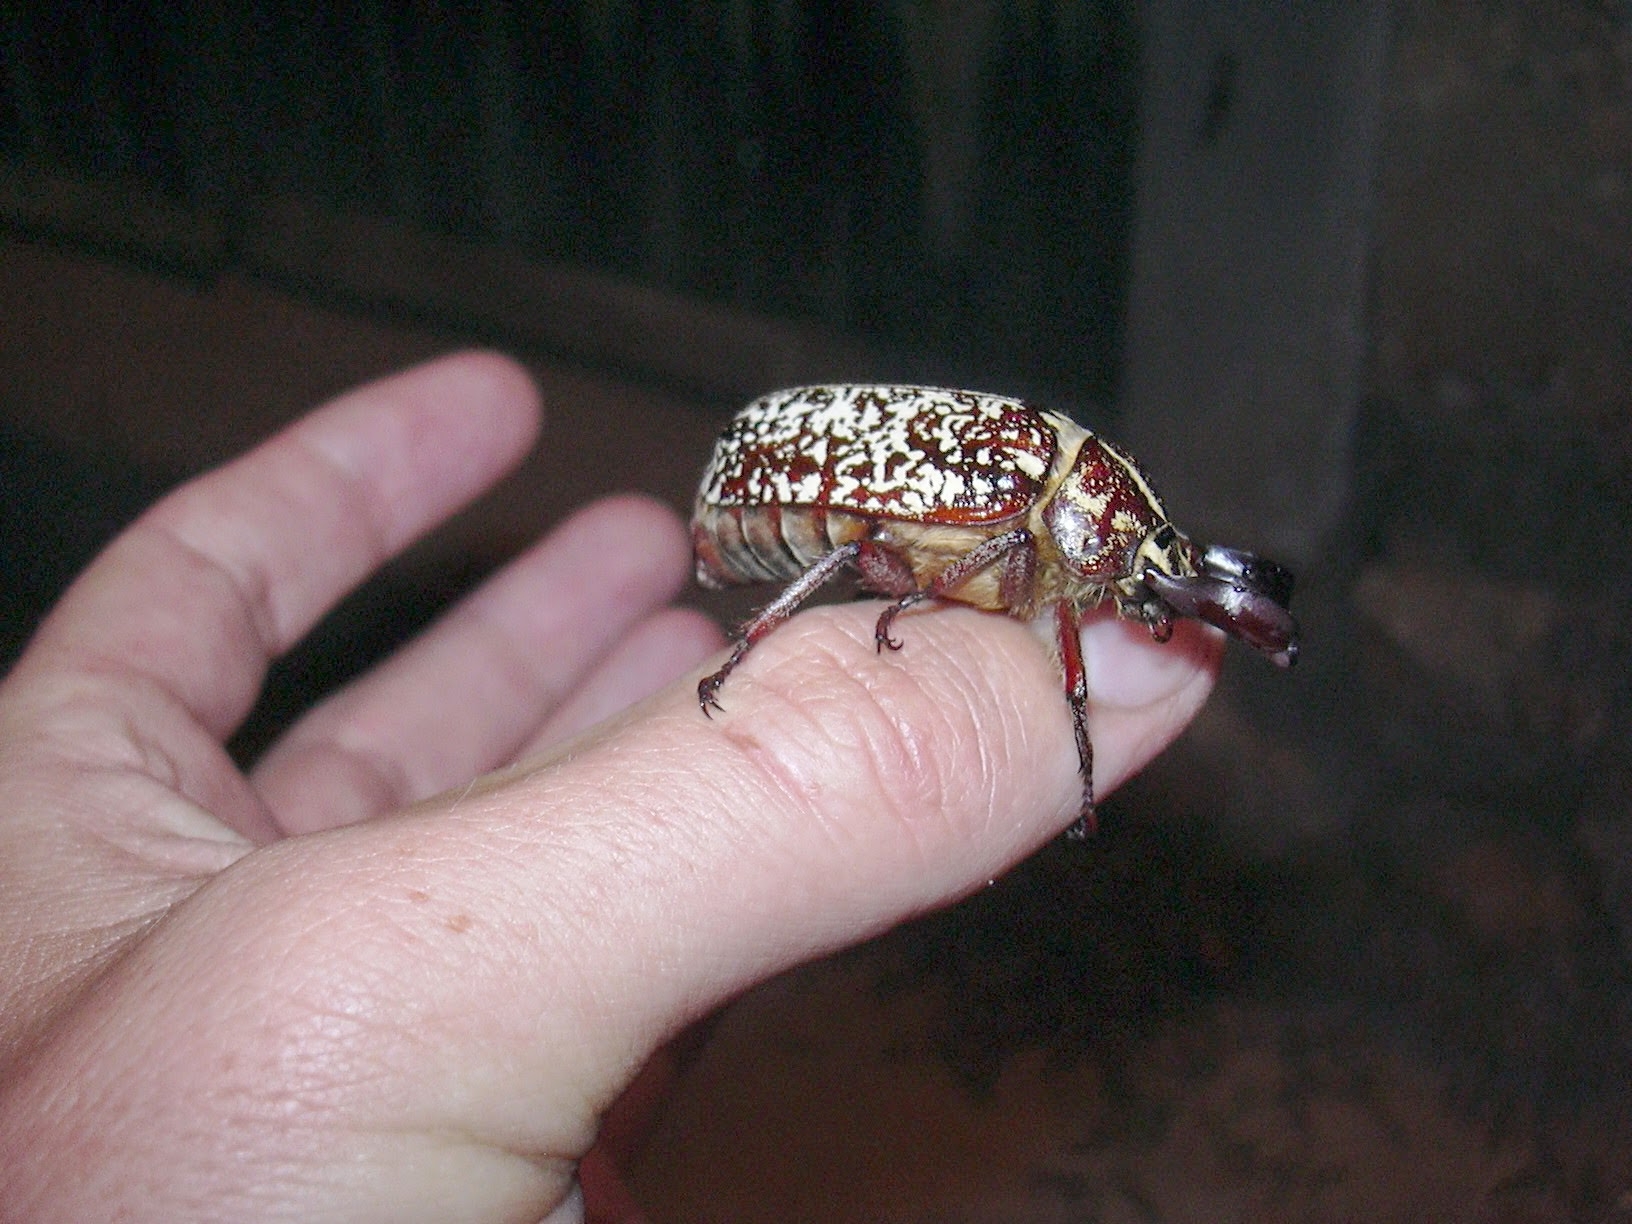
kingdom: Animalia
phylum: Arthropoda
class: Insecta
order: Coleoptera
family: Scarabaeidae
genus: Polyphylla
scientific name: Polyphylla fullo
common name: Pine chafer
